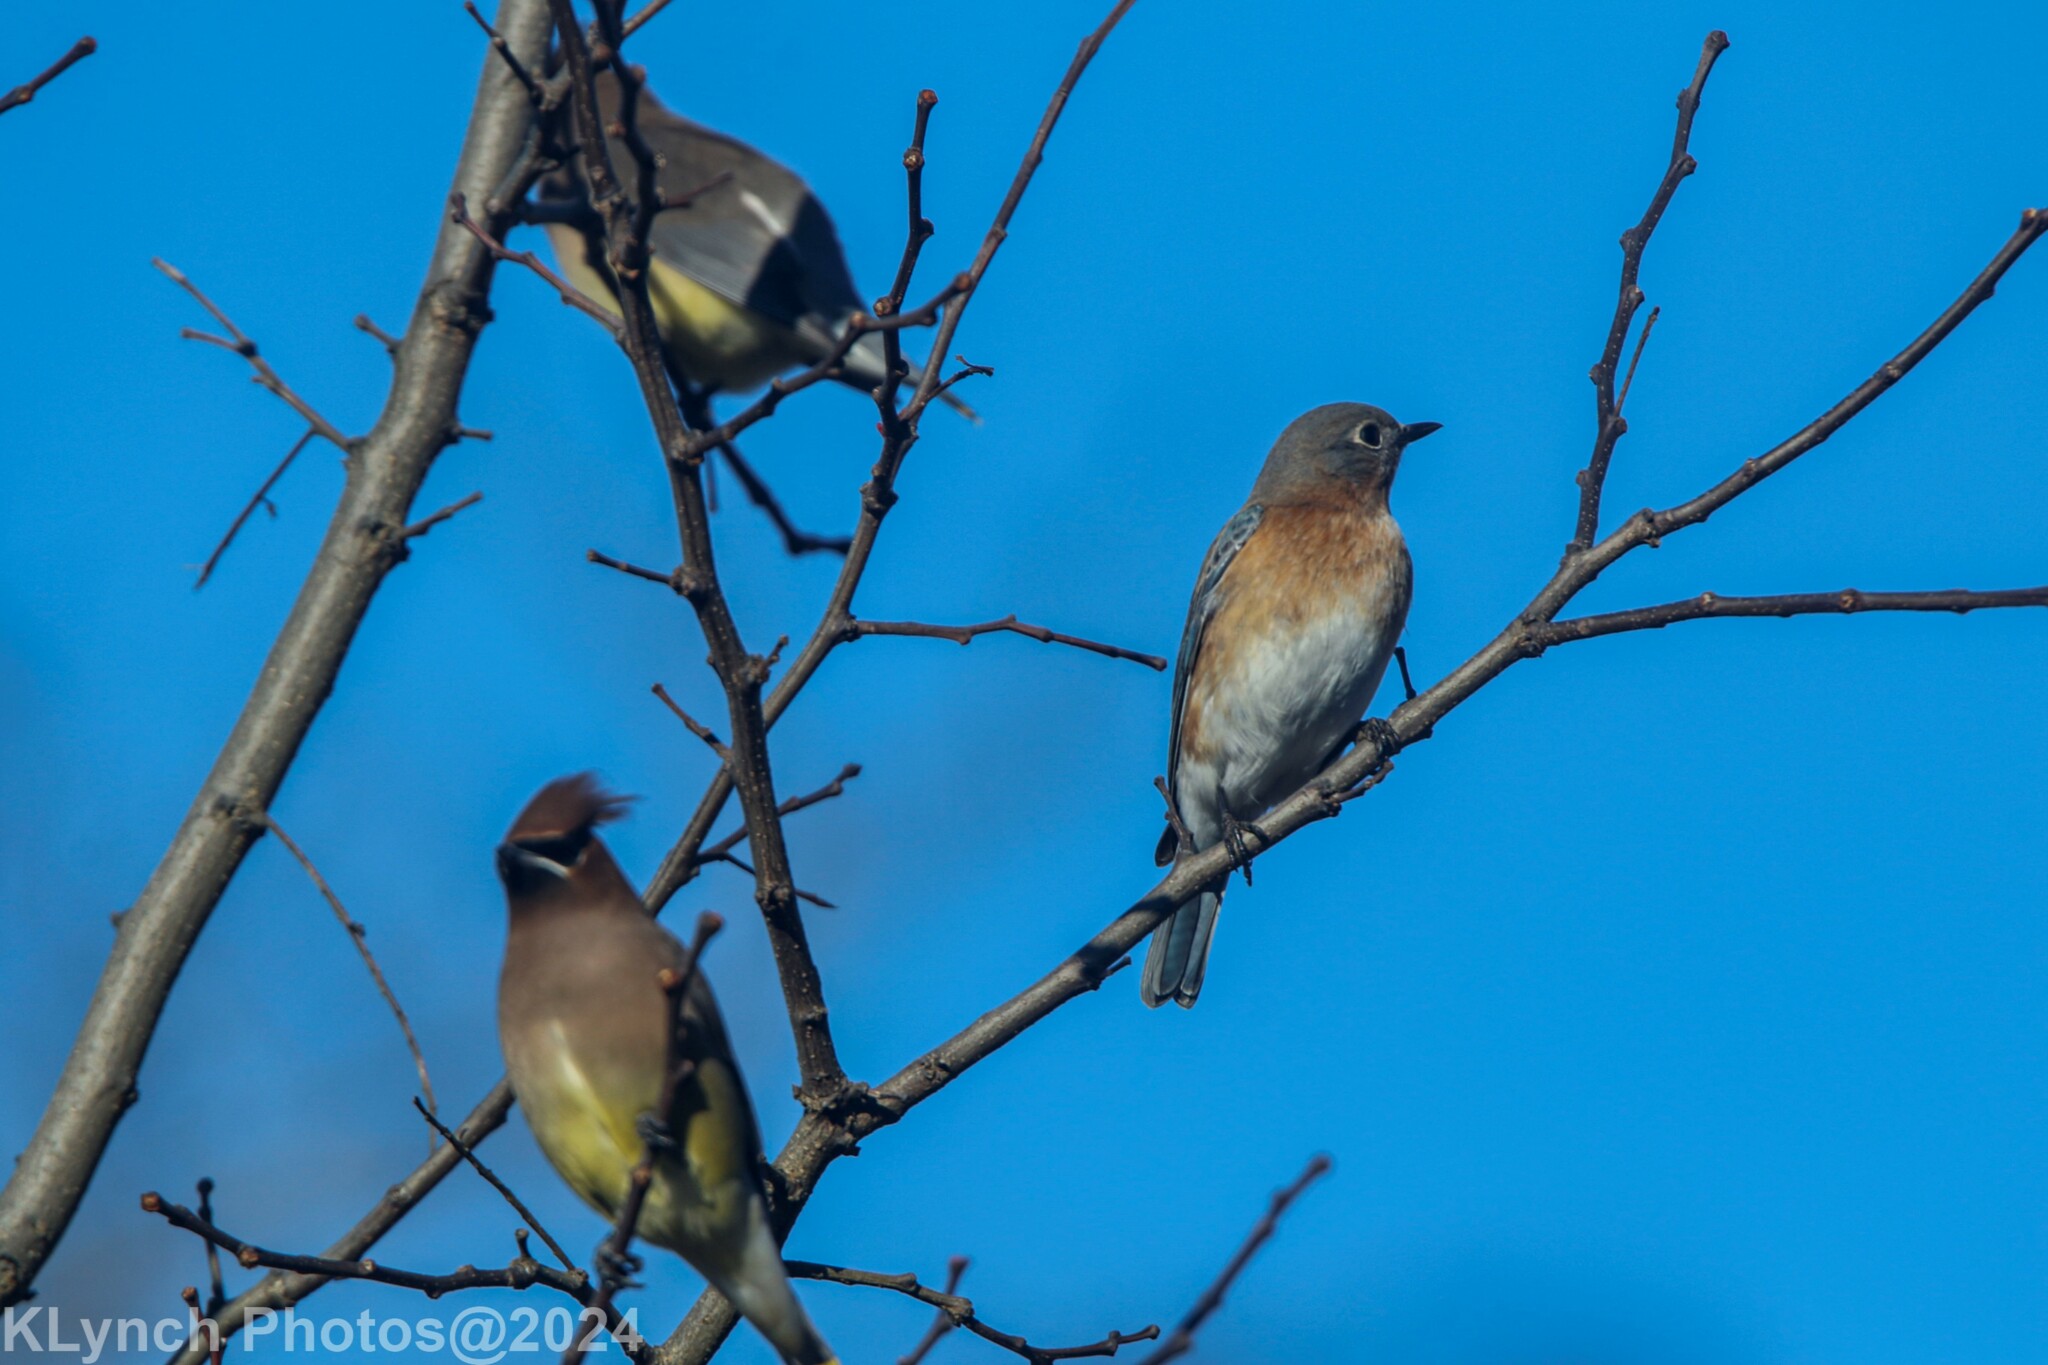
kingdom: Animalia
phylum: Chordata
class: Aves
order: Passeriformes
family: Turdidae
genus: Sialia
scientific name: Sialia sialis
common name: Eastern bluebird
